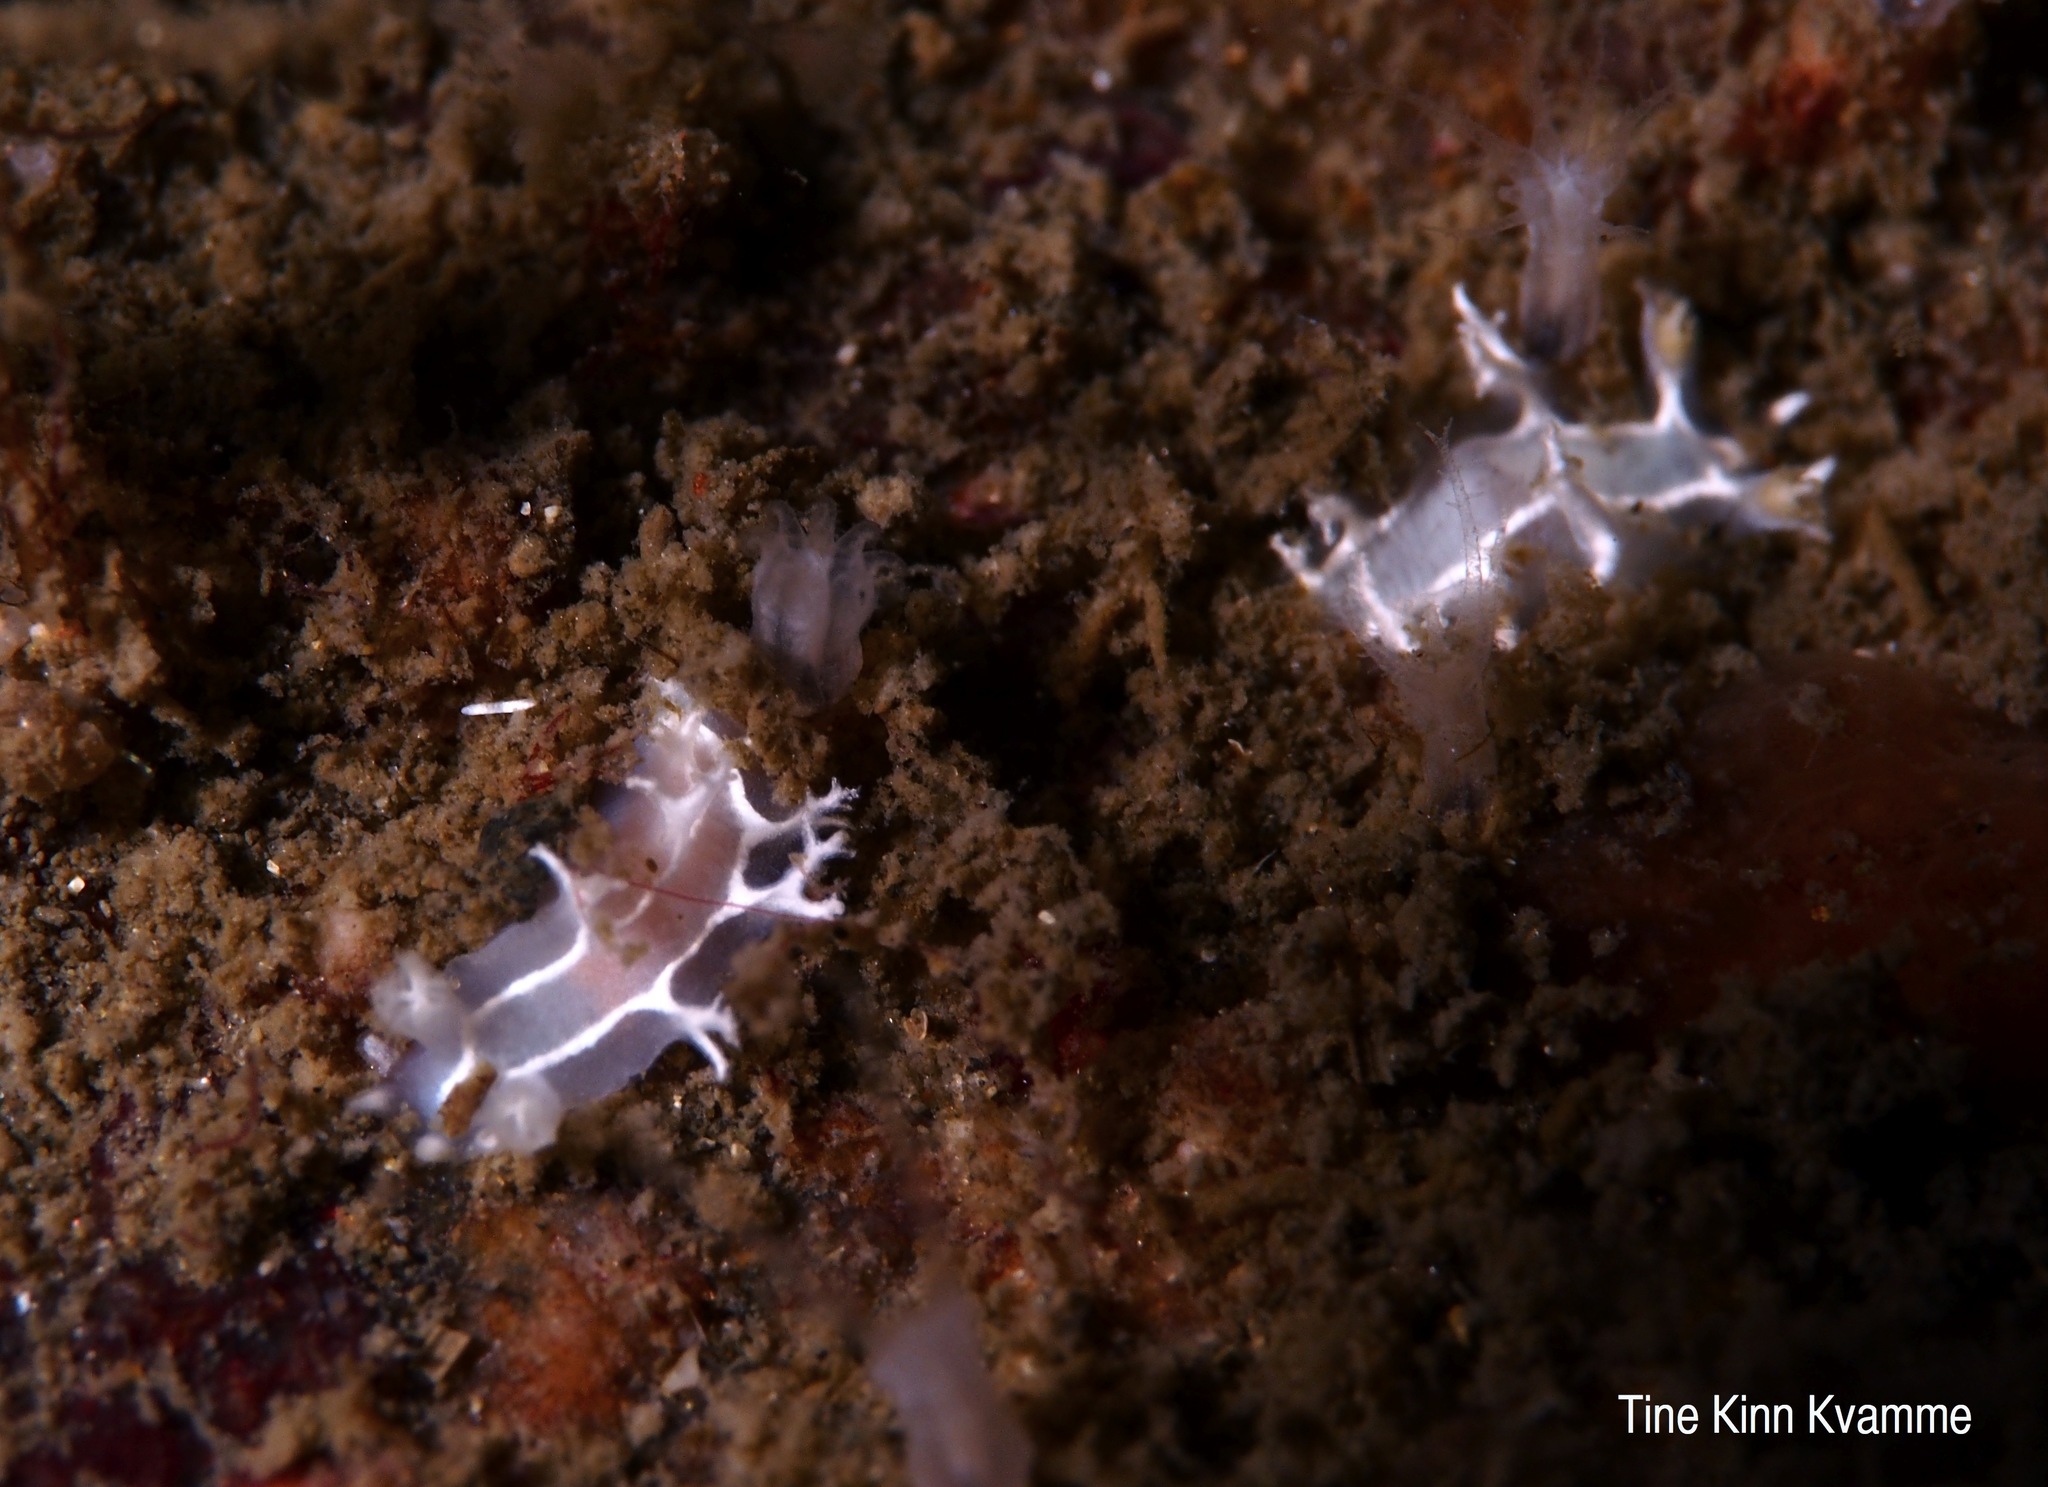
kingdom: Animalia
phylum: Mollusca
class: Gastropoda
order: Nudibranchia
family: Tritoniidae
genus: Duvaucelia
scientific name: Duvaucelia lineata
